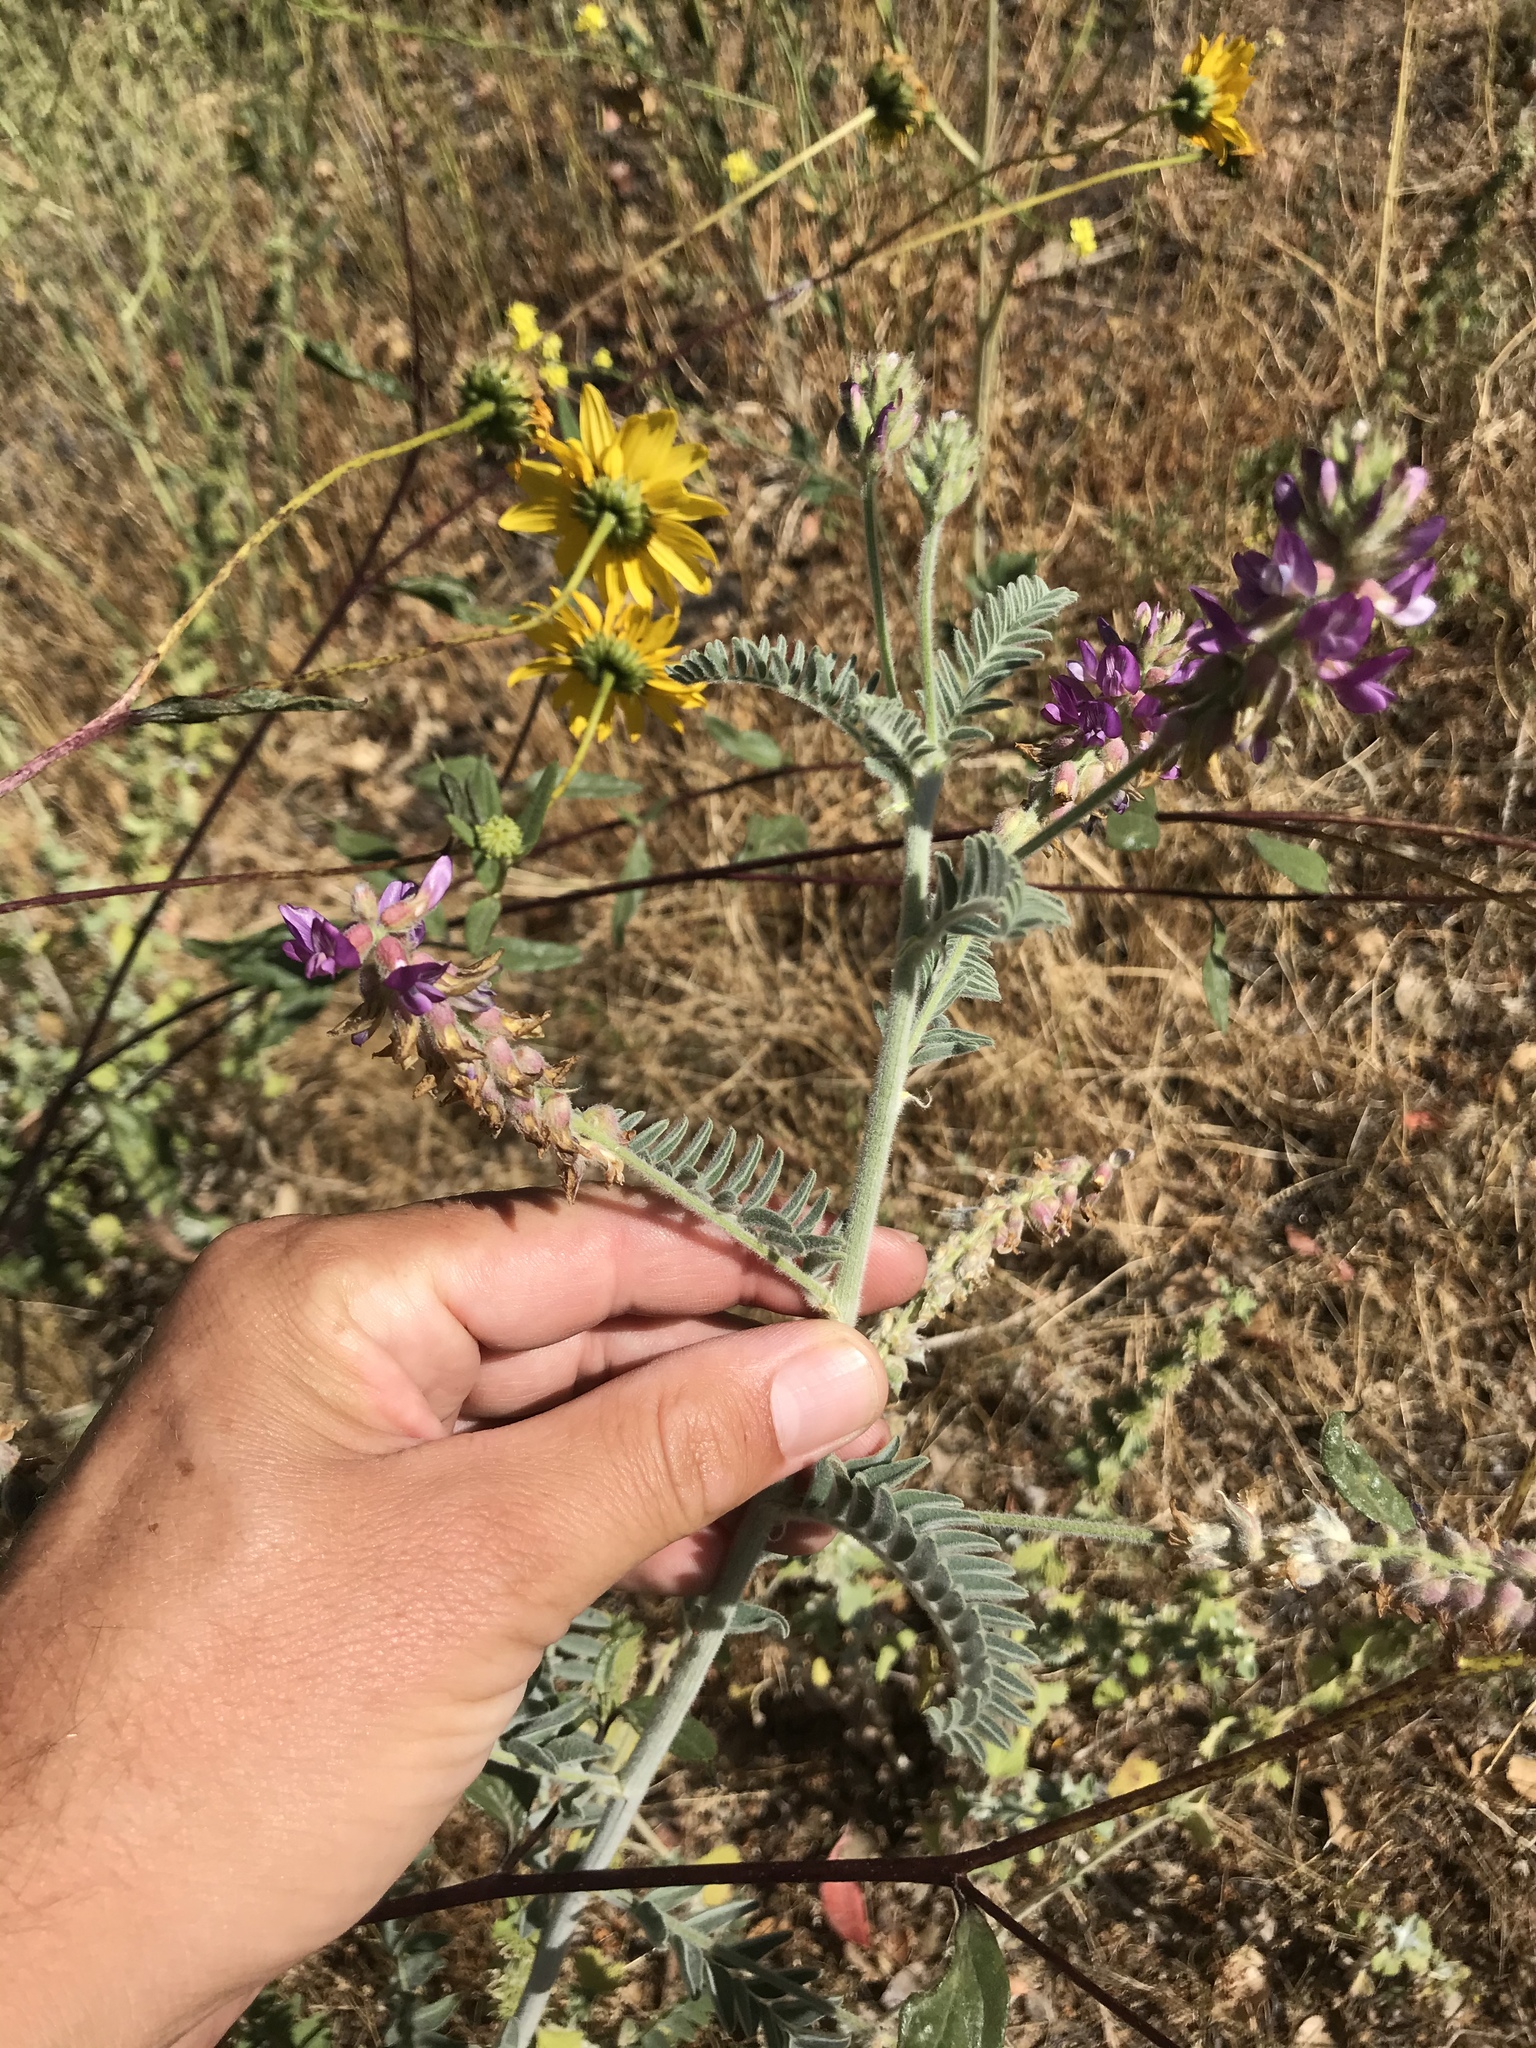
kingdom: Plantae
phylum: Tracheophyta
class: Magnoliopsida
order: Fabales
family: Fabaceae
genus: Astragalus
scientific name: Astragalus brauntonii
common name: Braunton's milk-vetch
